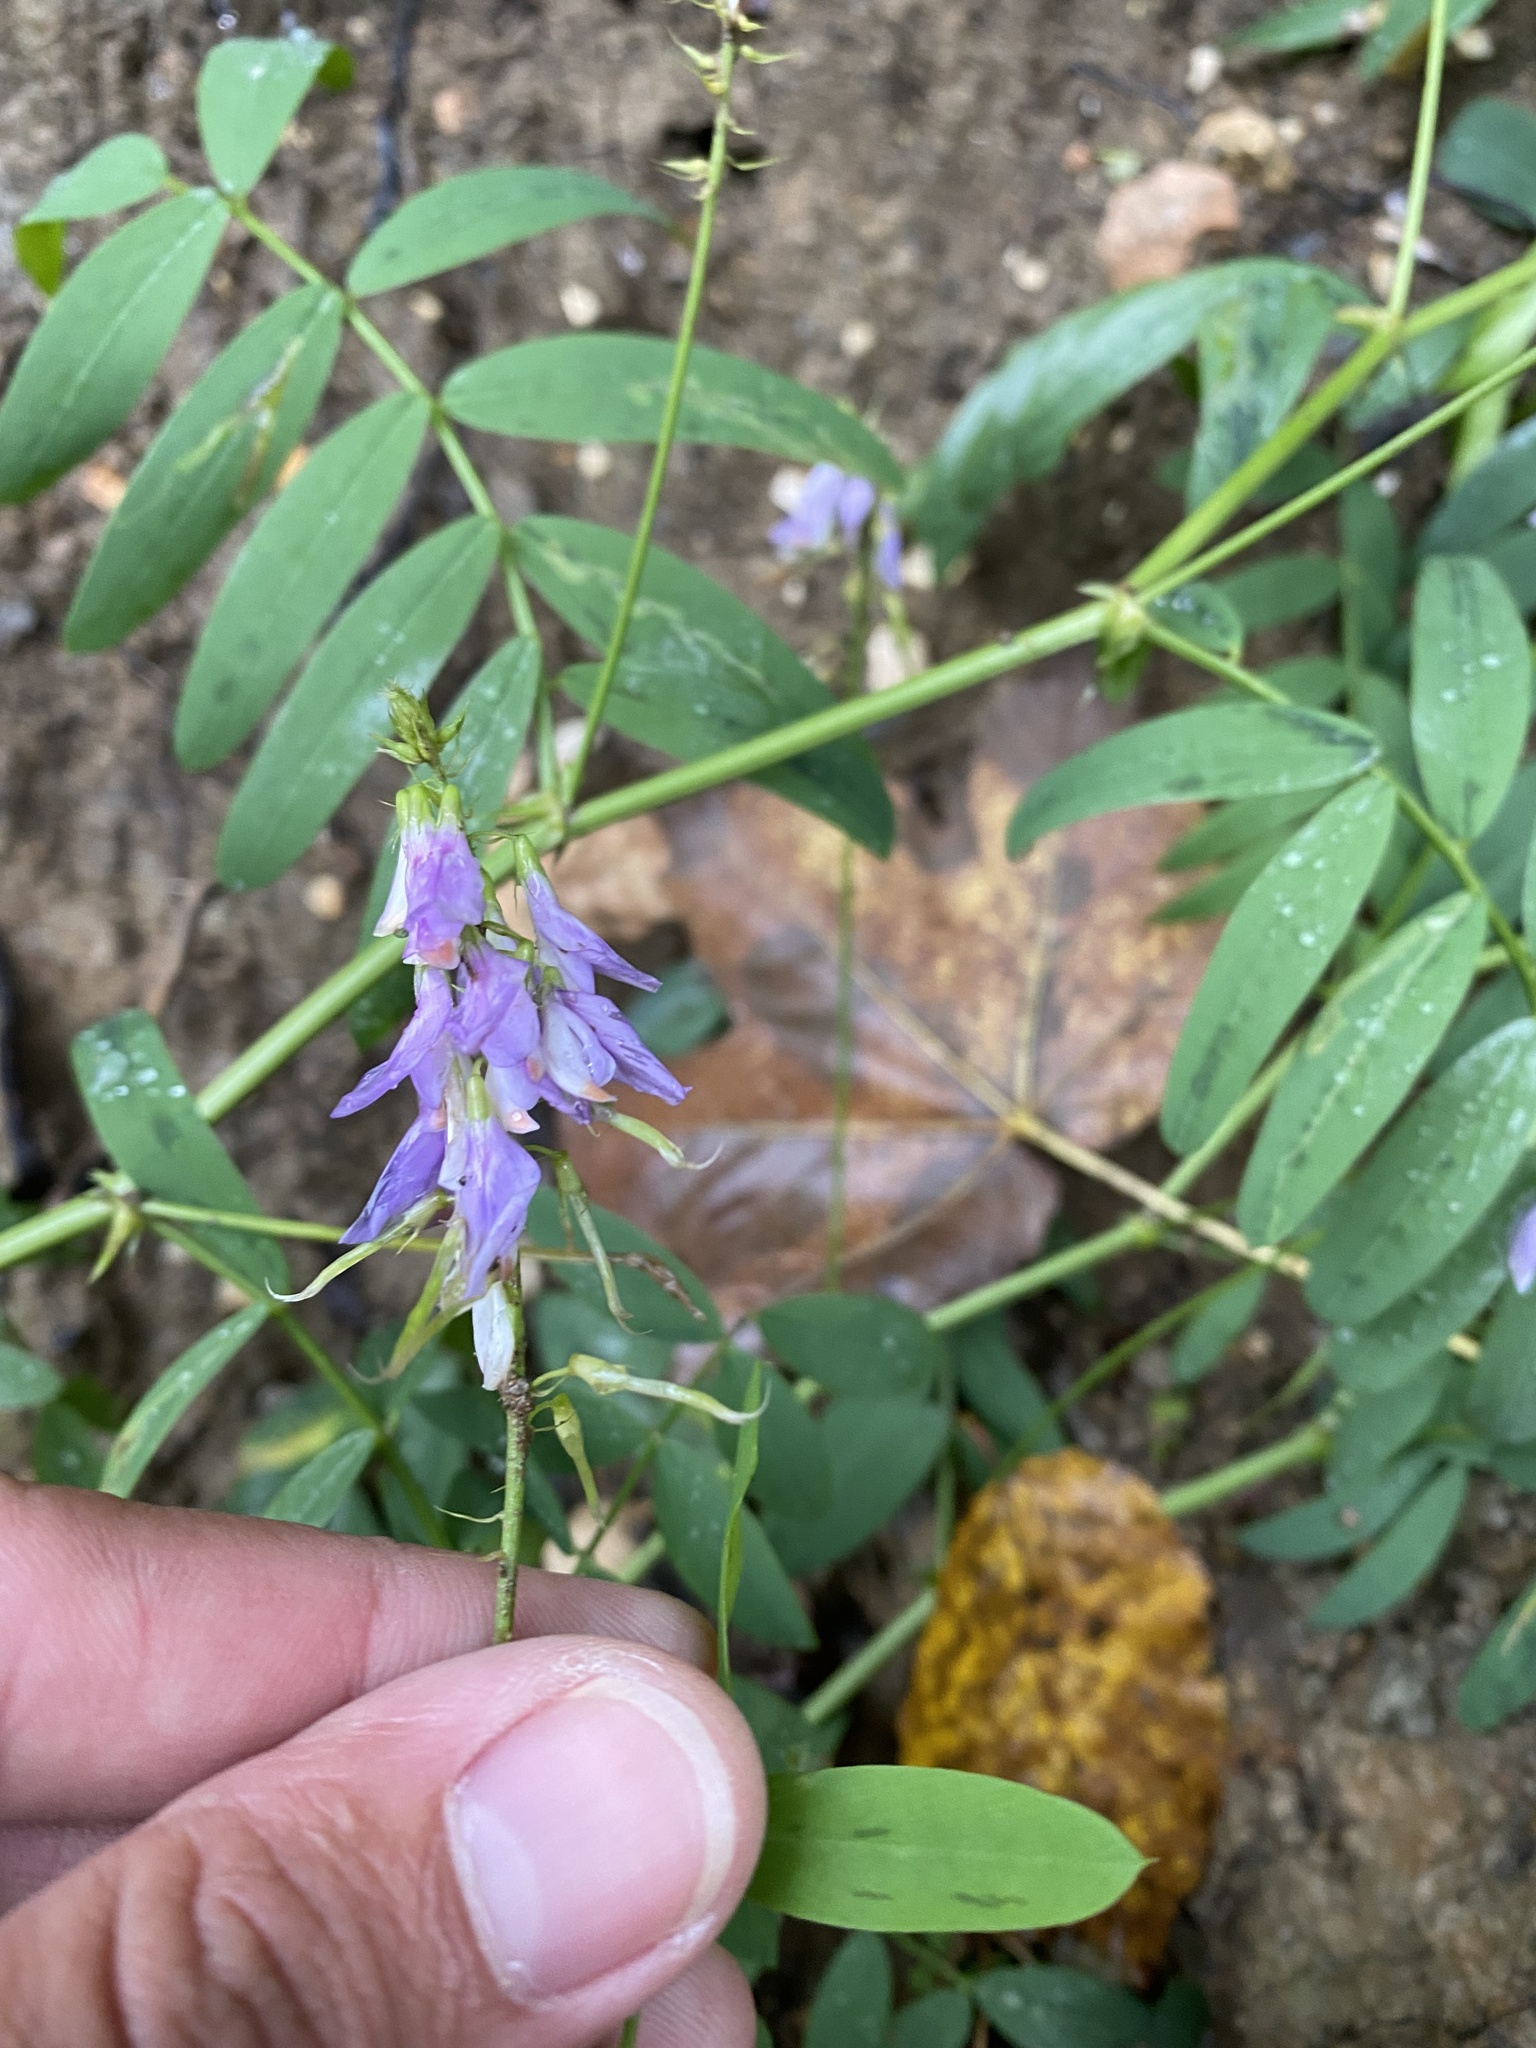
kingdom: Plantae
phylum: Tracheophyta
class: Magnoliopsida
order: Fabales
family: Fabaceae
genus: Galega
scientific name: Galega officinalis
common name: Goat's-rue
